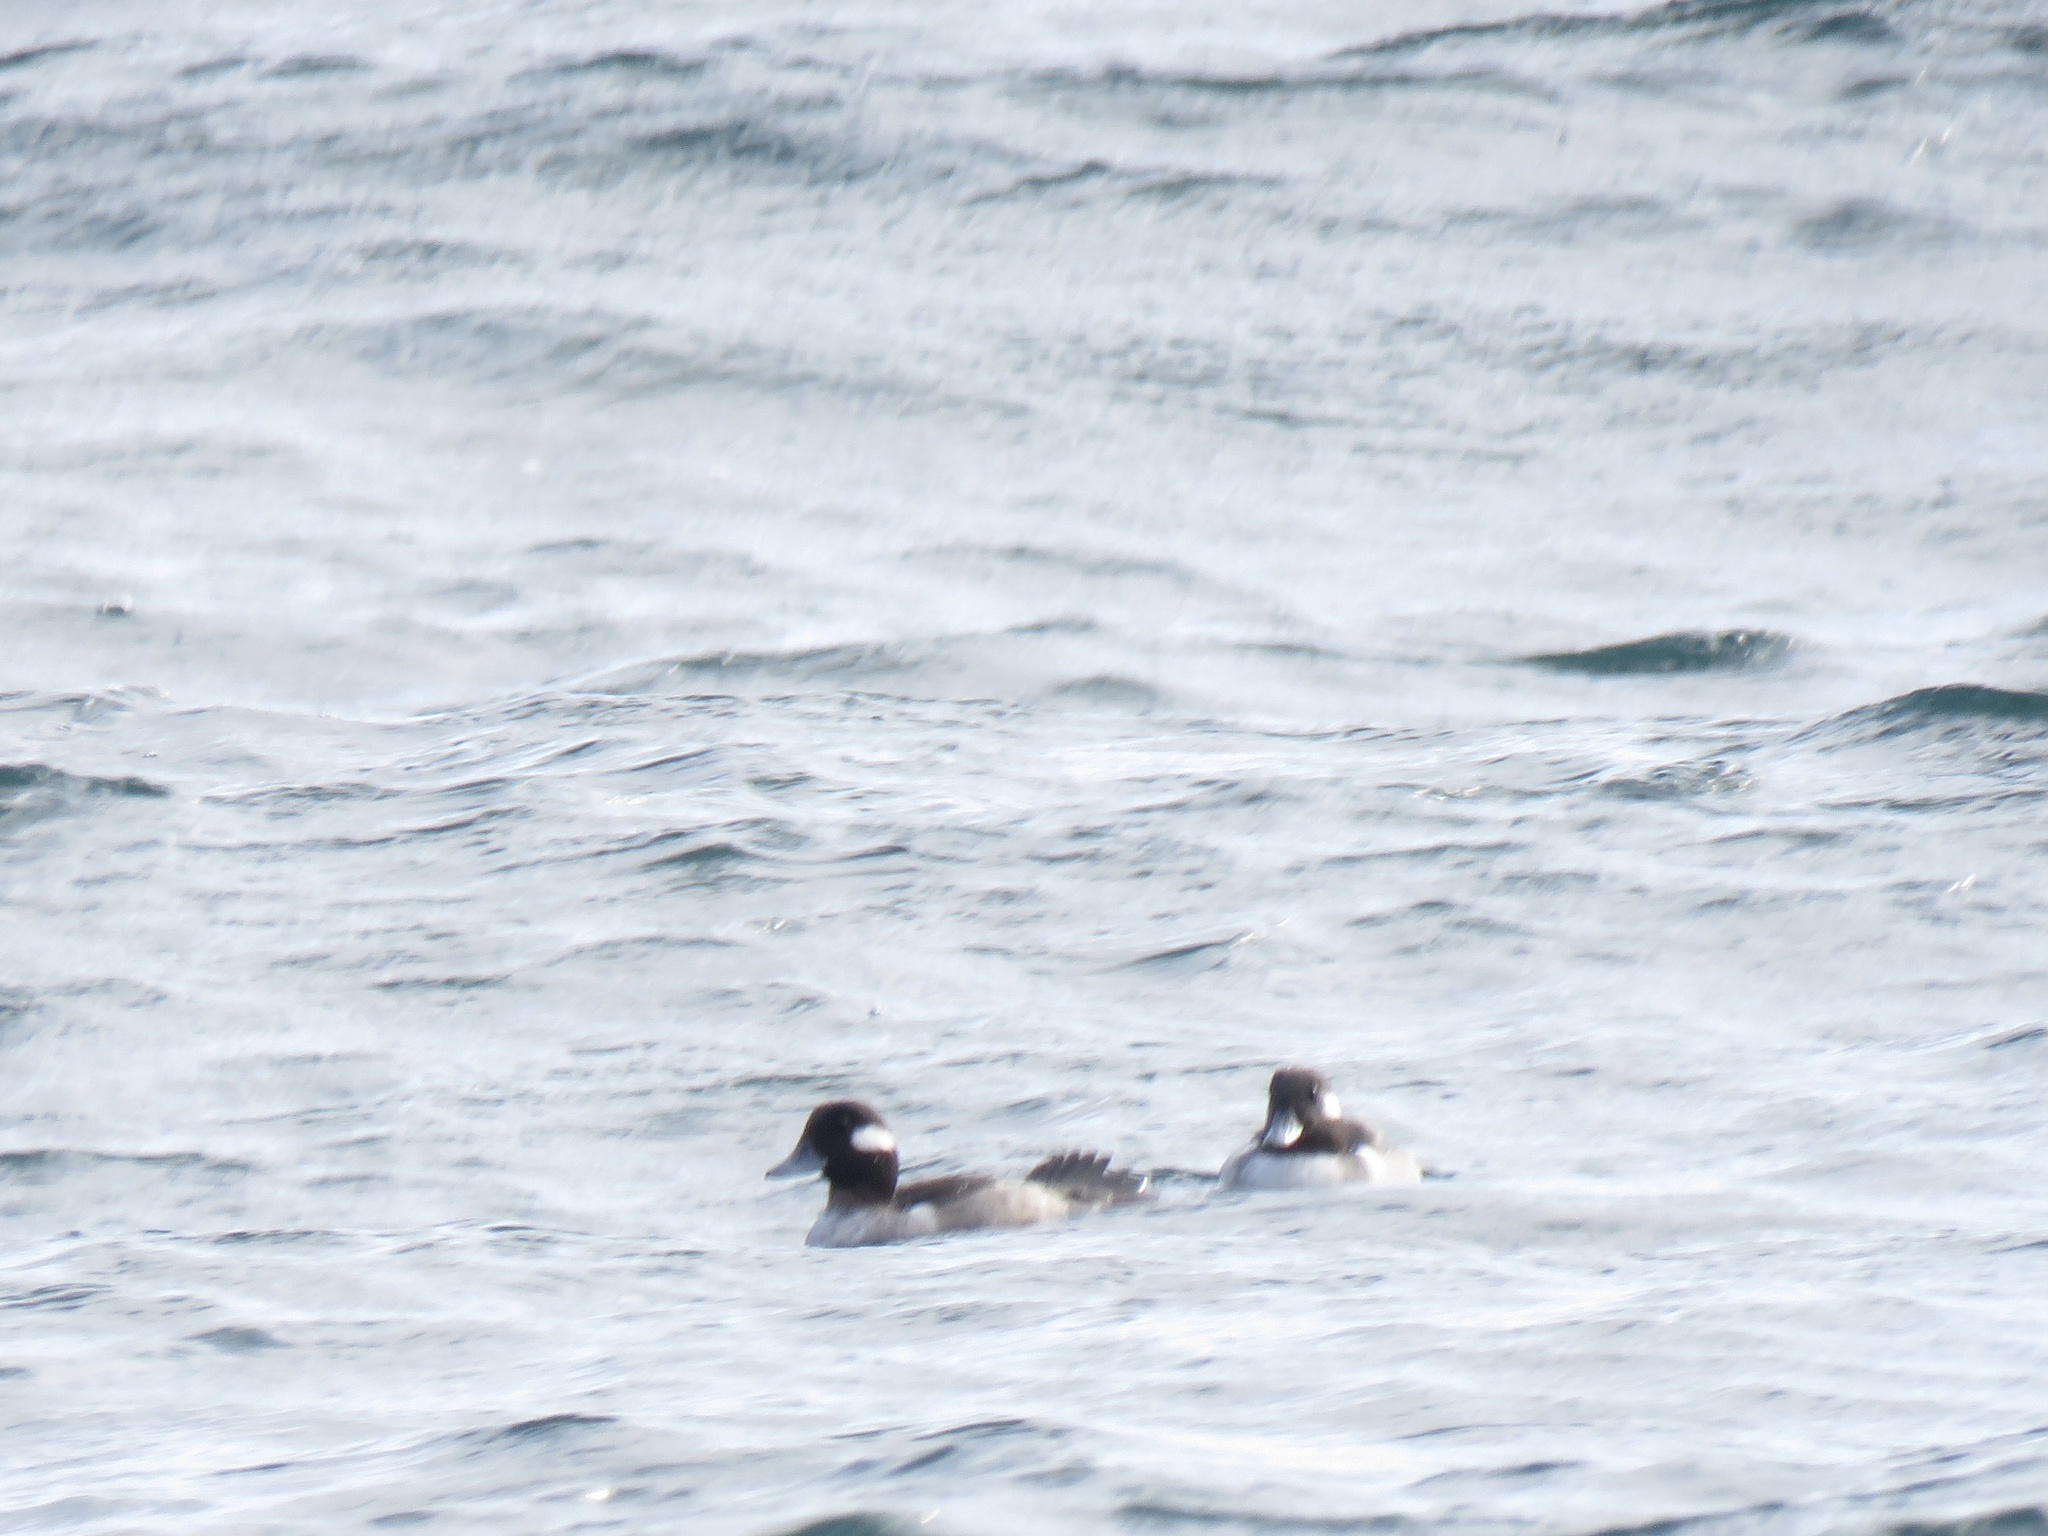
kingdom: Animalia
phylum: Chordata
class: Aves
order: Anseriformes
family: Anatidae
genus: Bucephala
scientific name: Bucephala albeola
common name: Bufflehead
